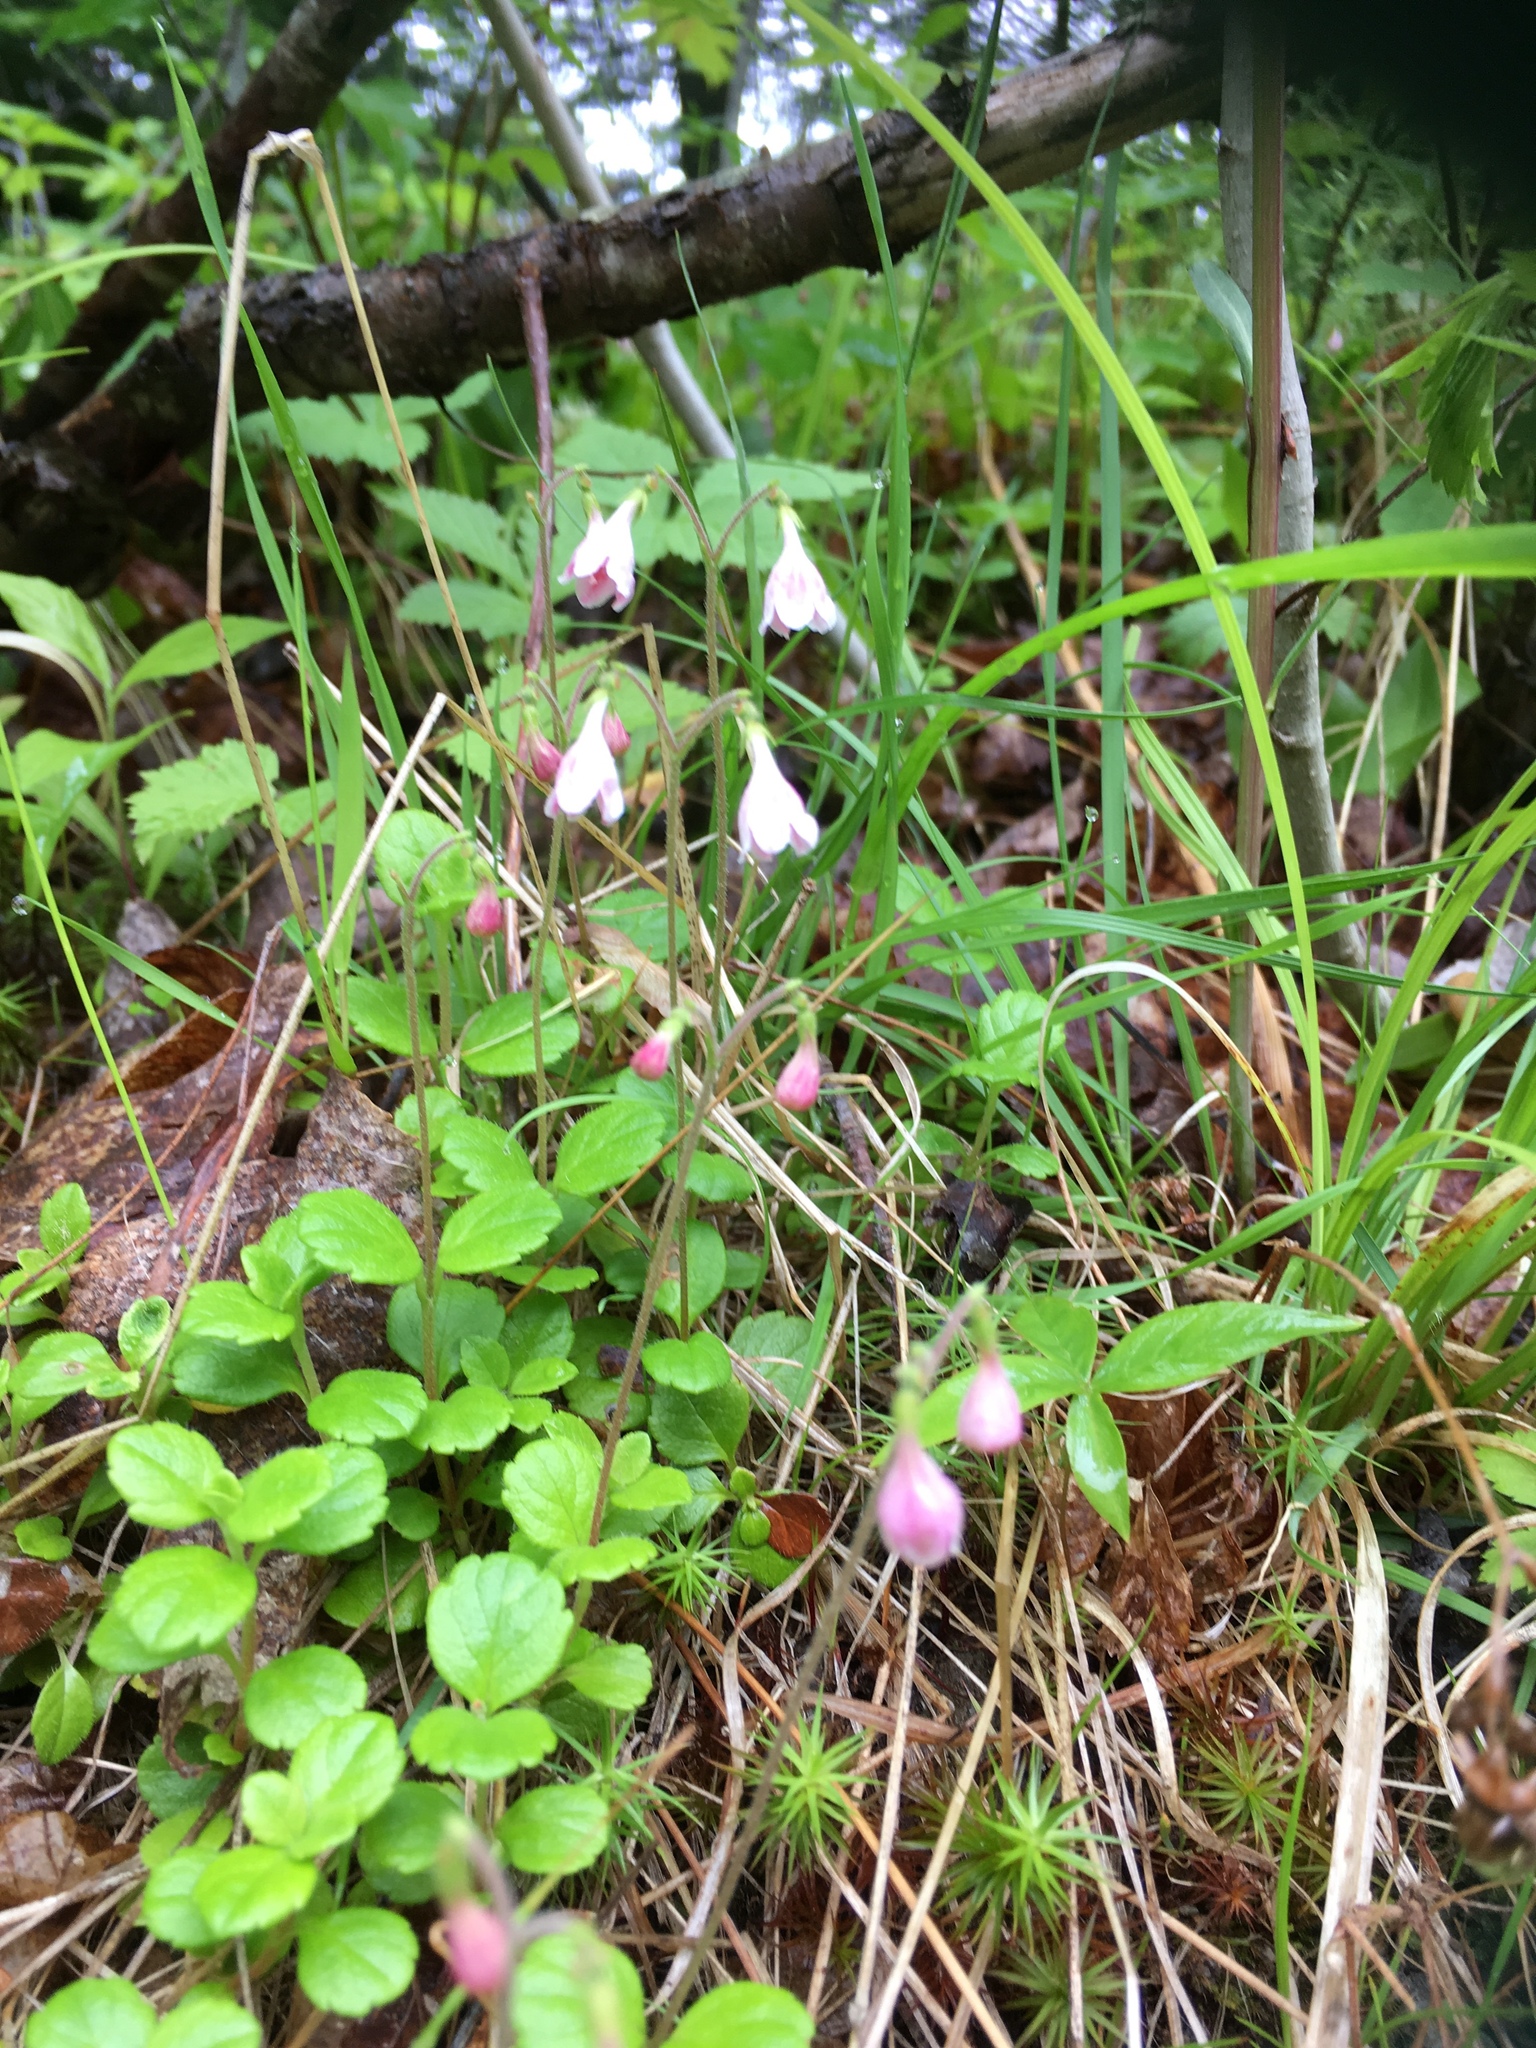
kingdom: Plantae
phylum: Tracheophyta
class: Magnoliopsida
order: Dipsacales
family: Caprifoliaceae
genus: Linnaea
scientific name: Linnaea borealis
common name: Twinflower
